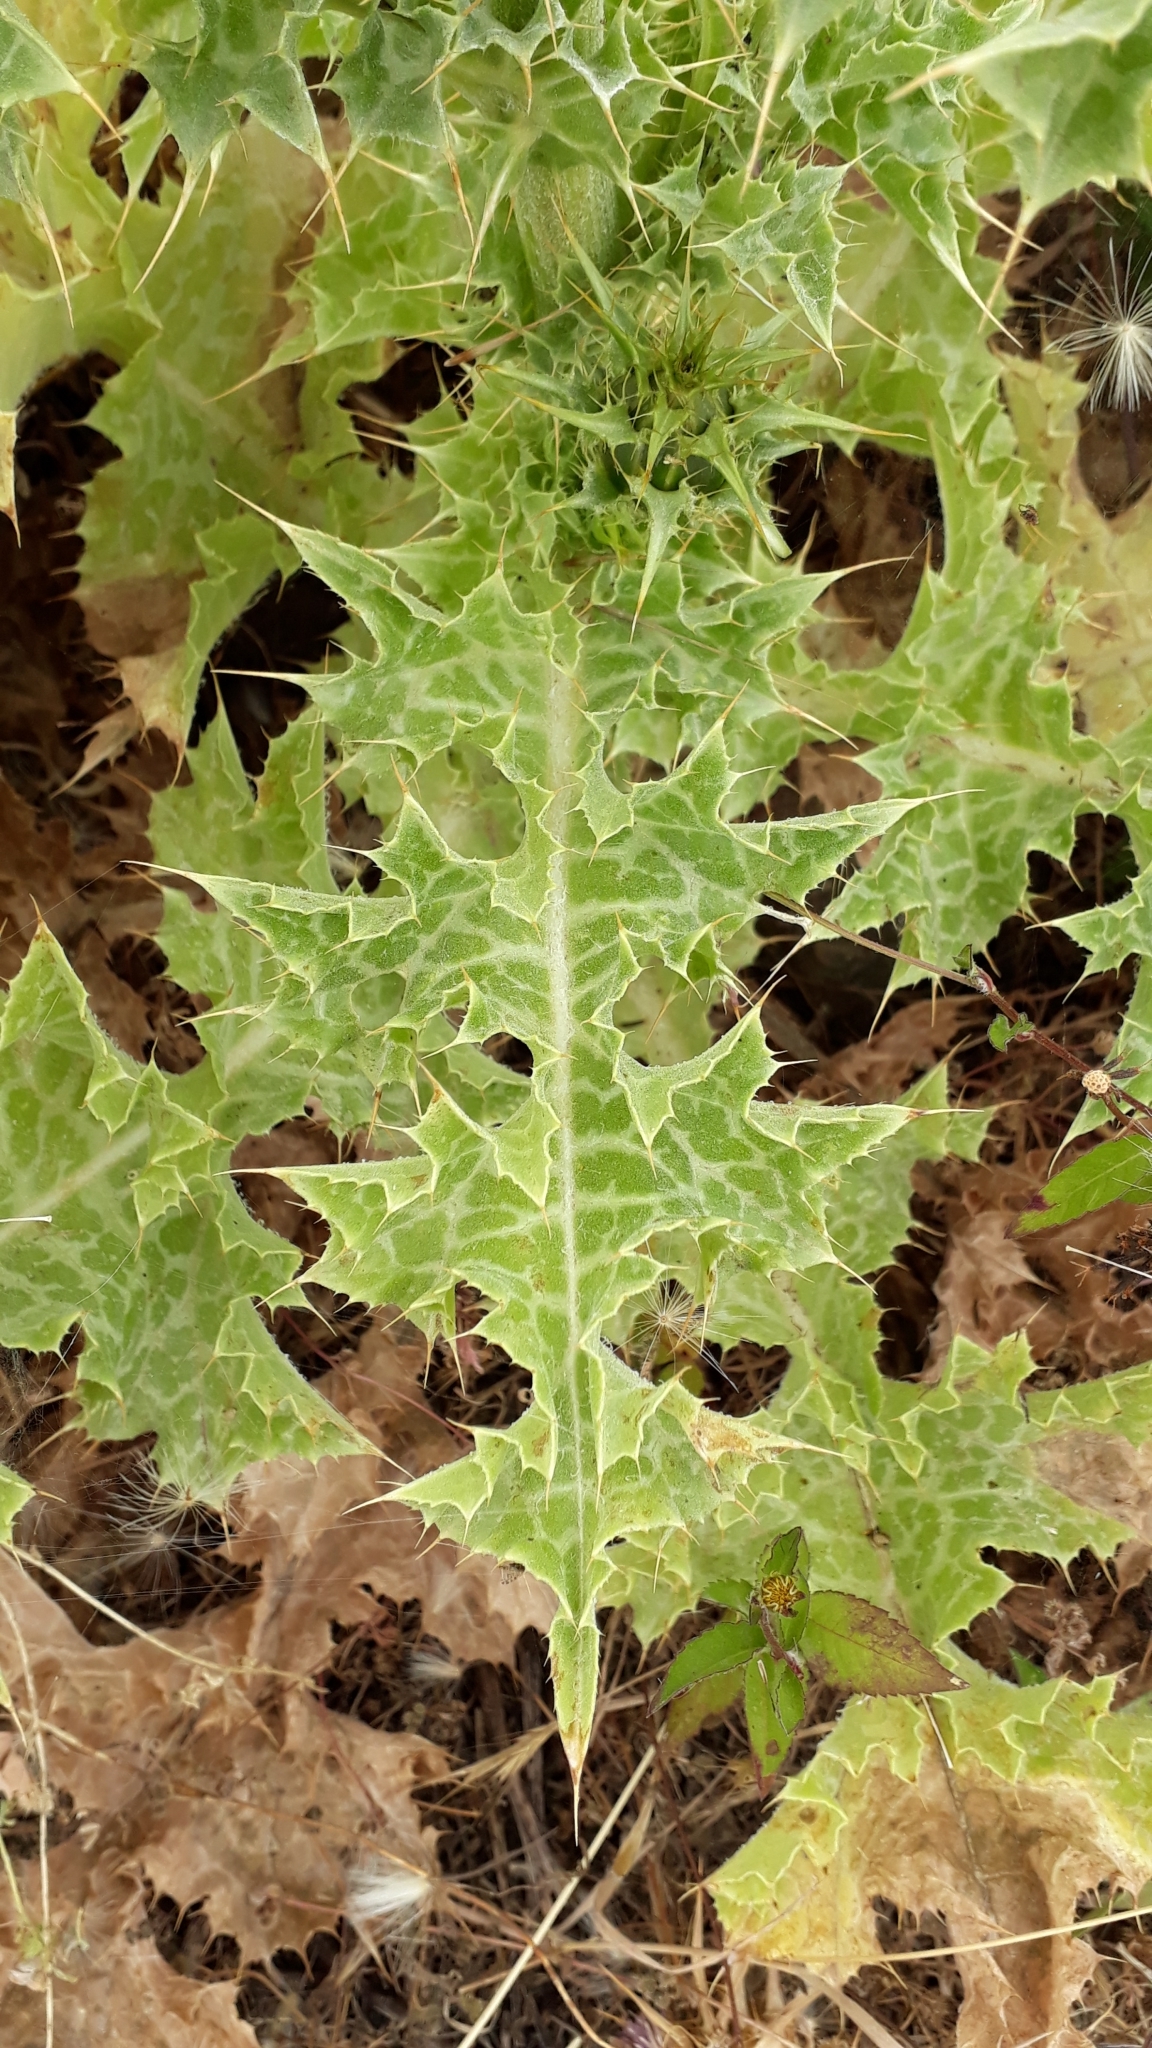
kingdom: Plantae
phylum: Tracheophyta
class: Magnoliopsida
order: Asterales
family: Asteraceae
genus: Silybum
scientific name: Silybum marianum
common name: Milk thistle
